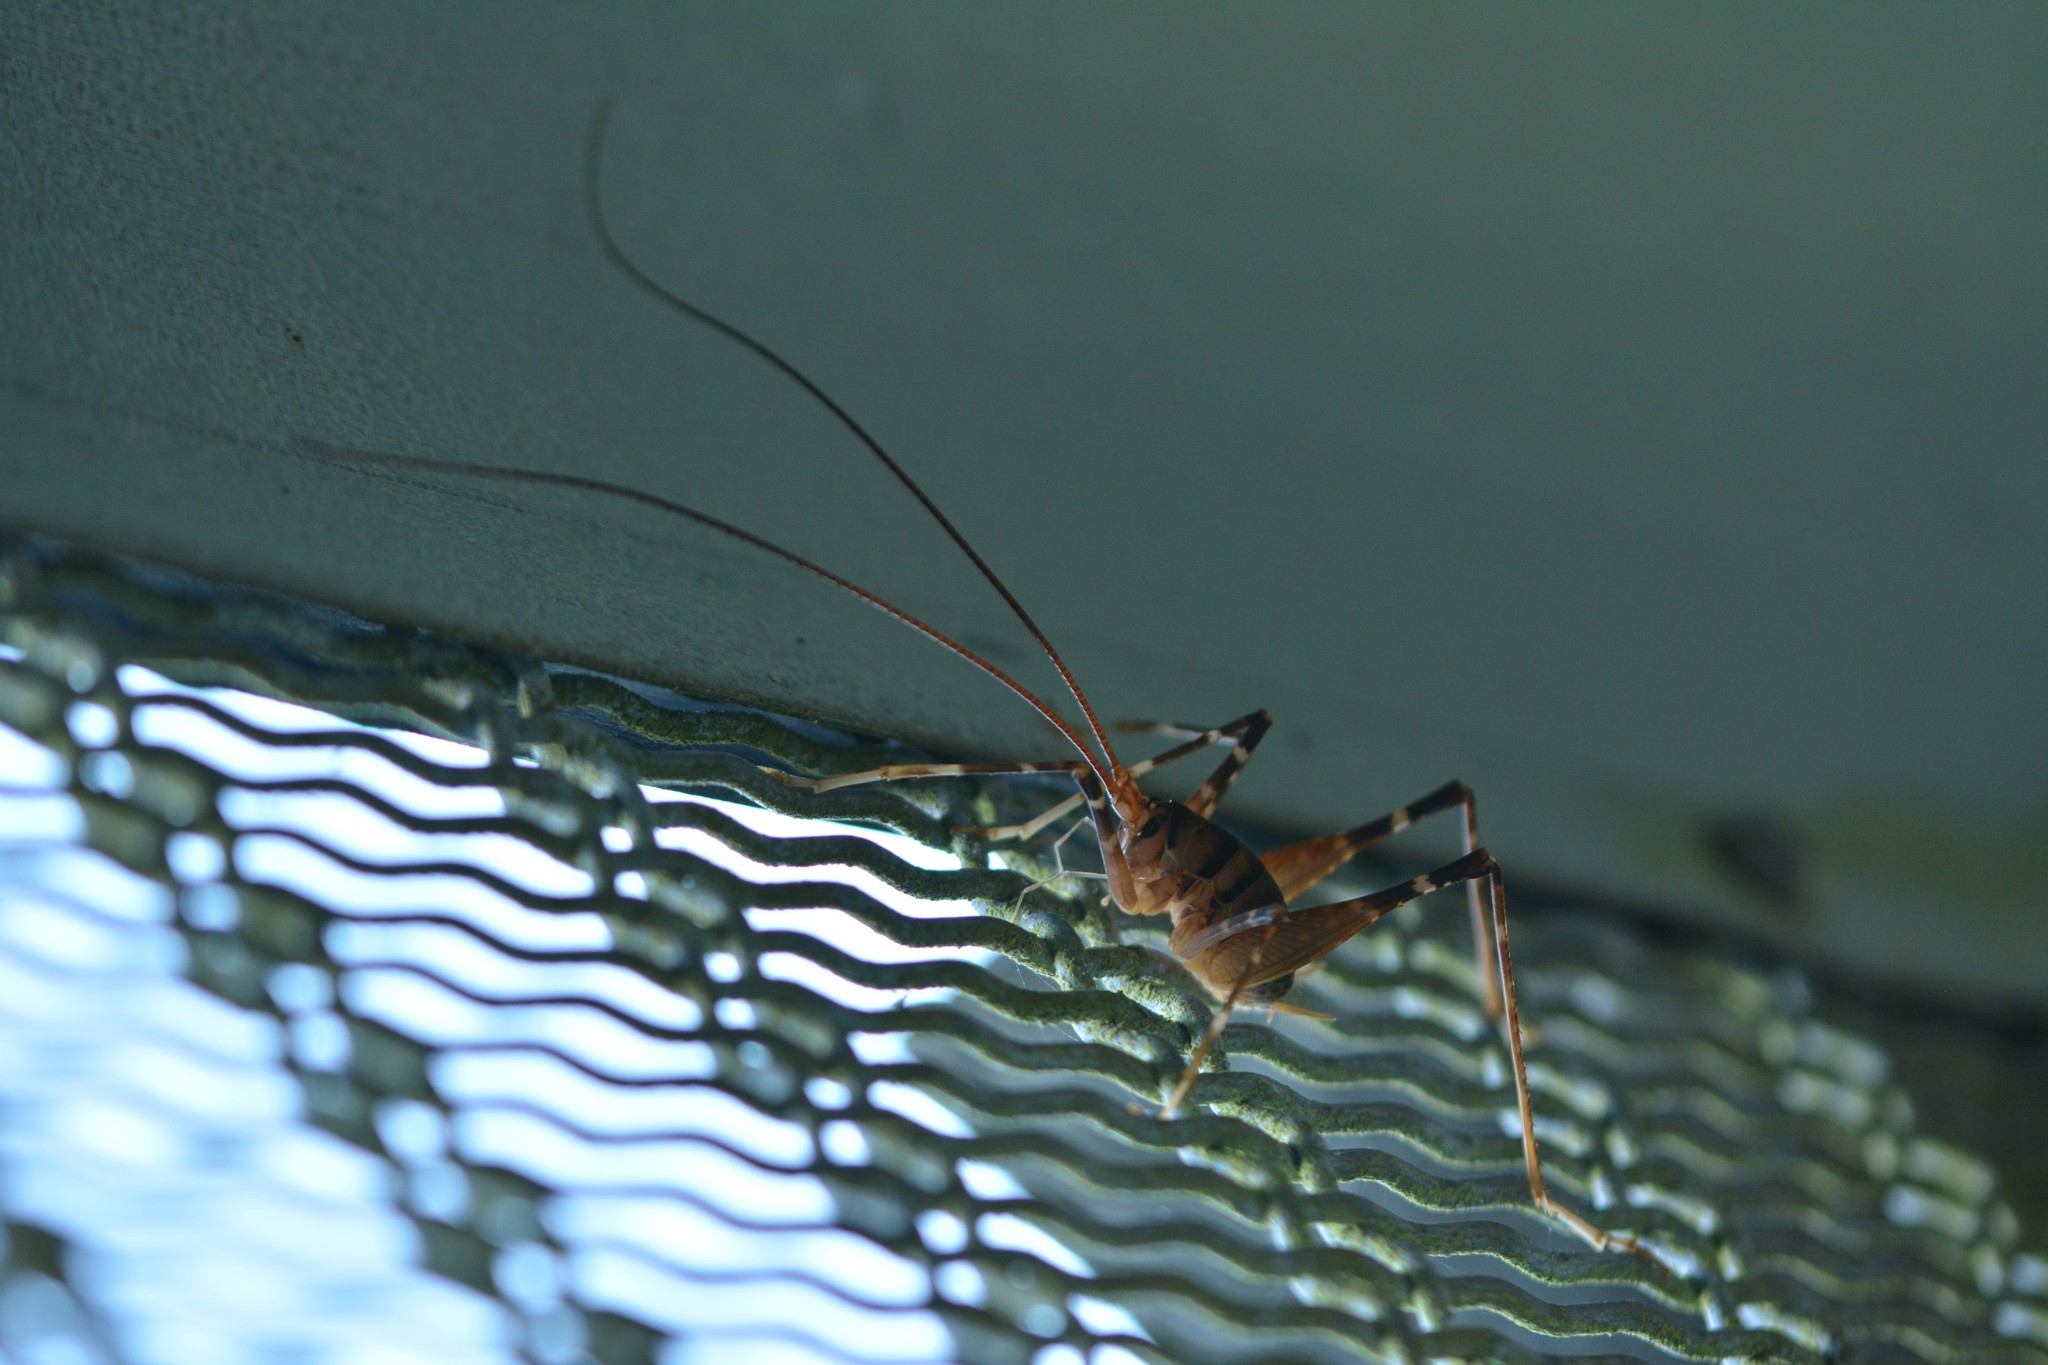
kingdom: Animalia
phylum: Arthropoda
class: Insecta
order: Orthoptera
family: Rhaphidophoridae
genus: Pachyrhamma
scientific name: Pachyrhamma edwardsii
